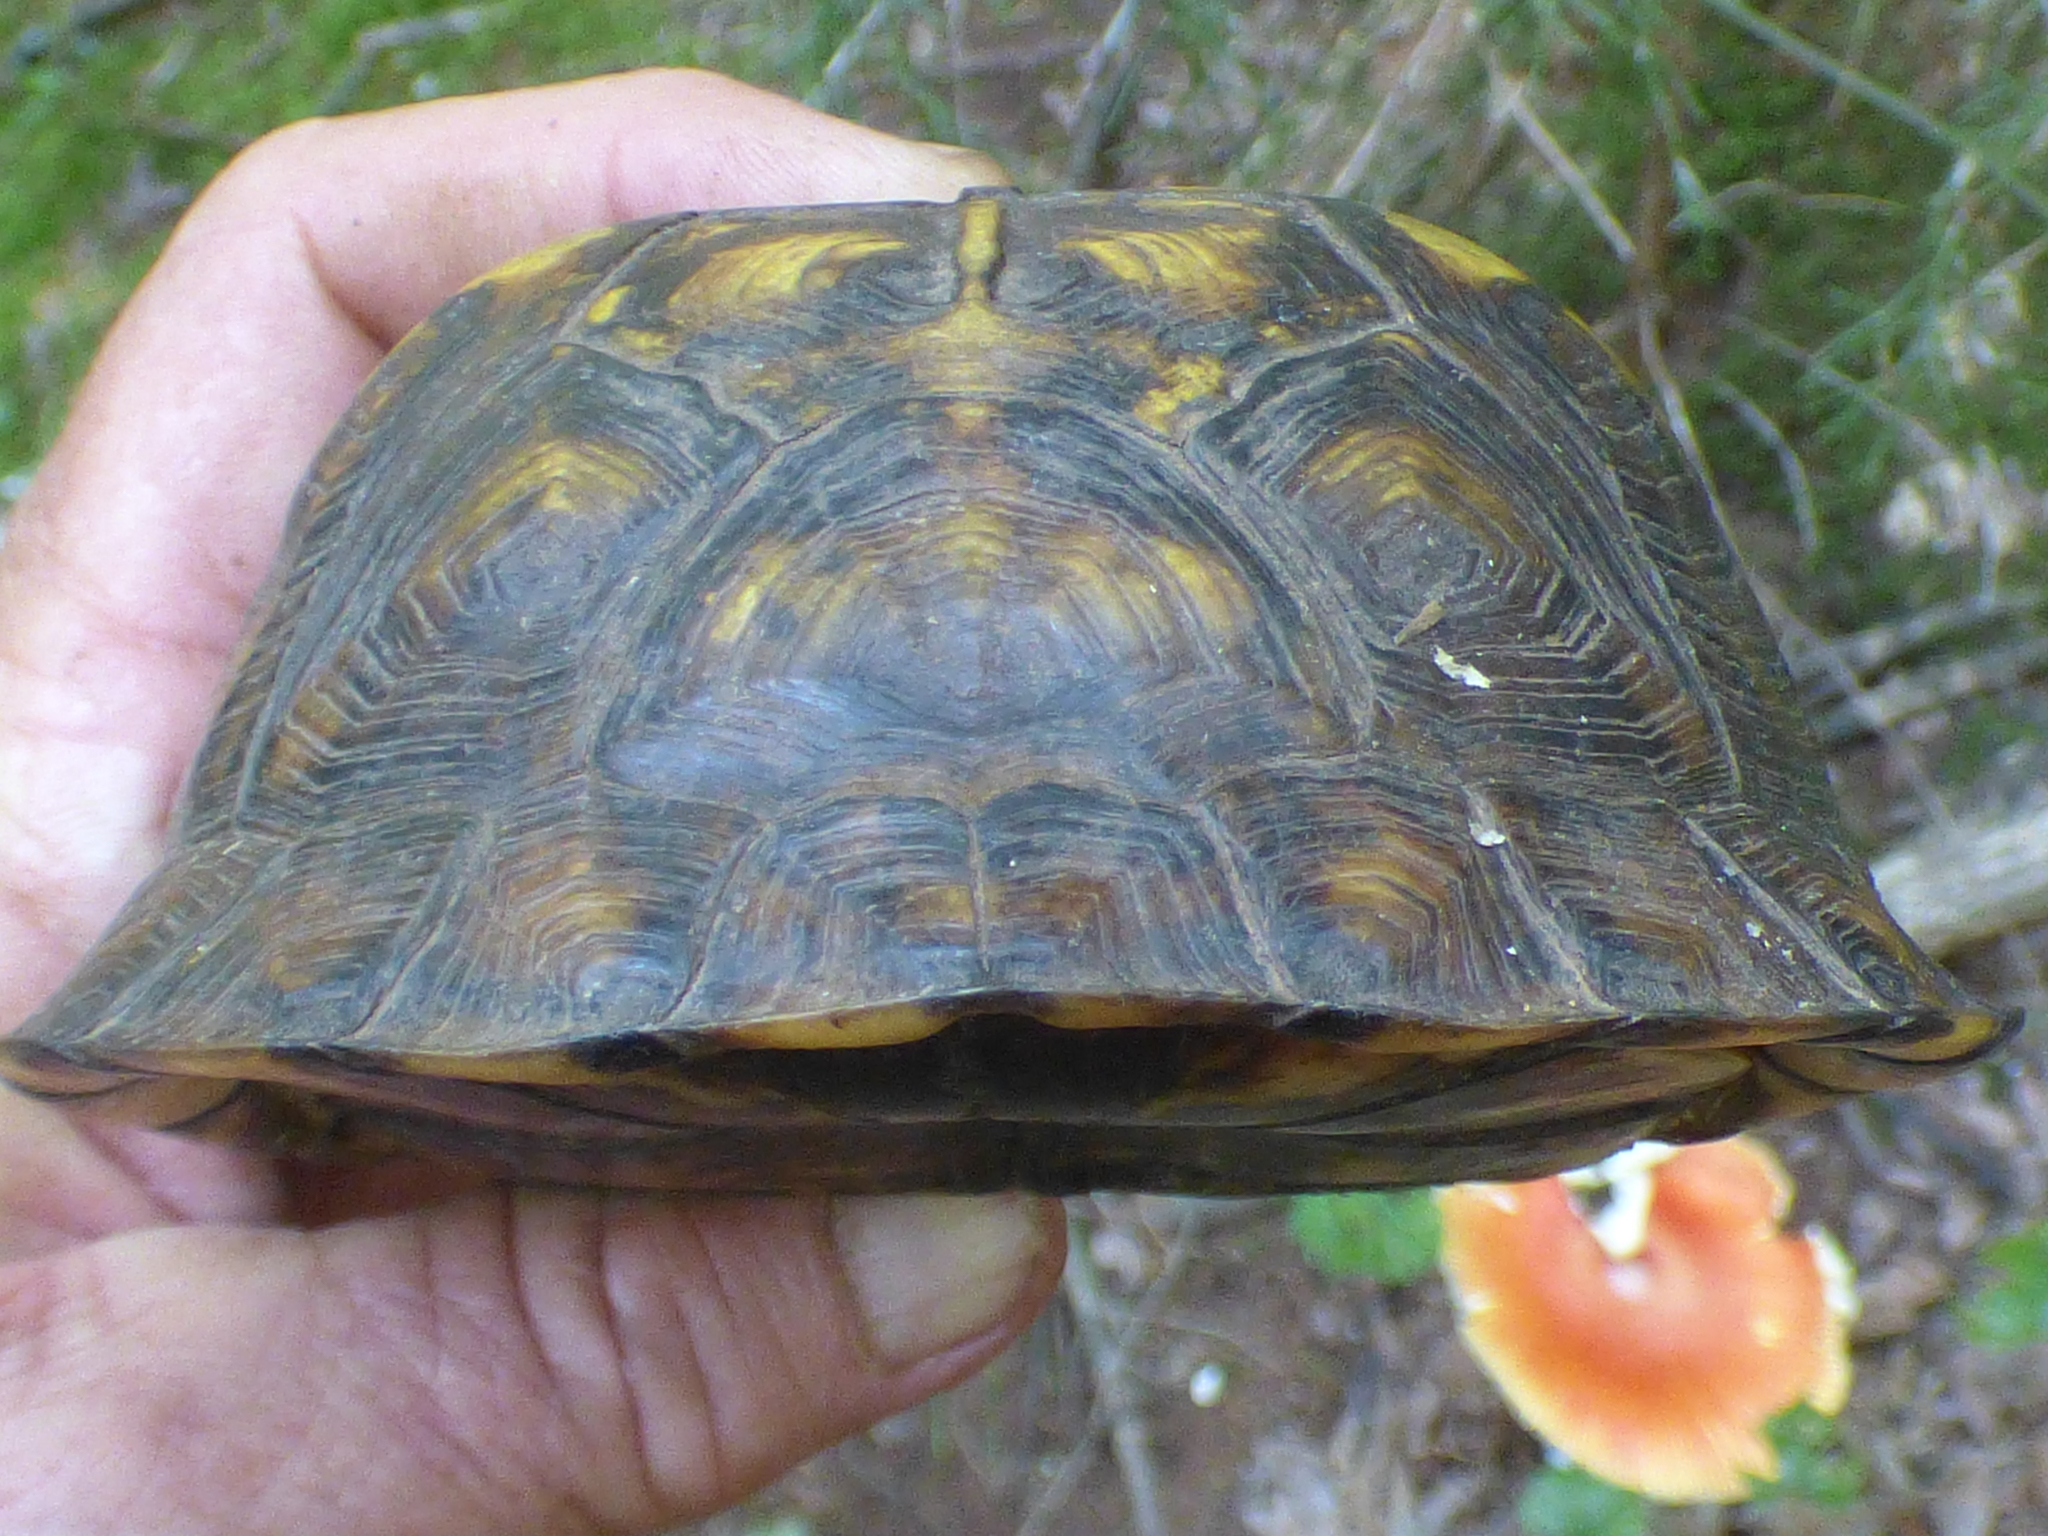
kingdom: Animalia
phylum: Chordata
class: Testudines
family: Emydidae
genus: Terrapene
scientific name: Terrapene carolina
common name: Common box turtle
